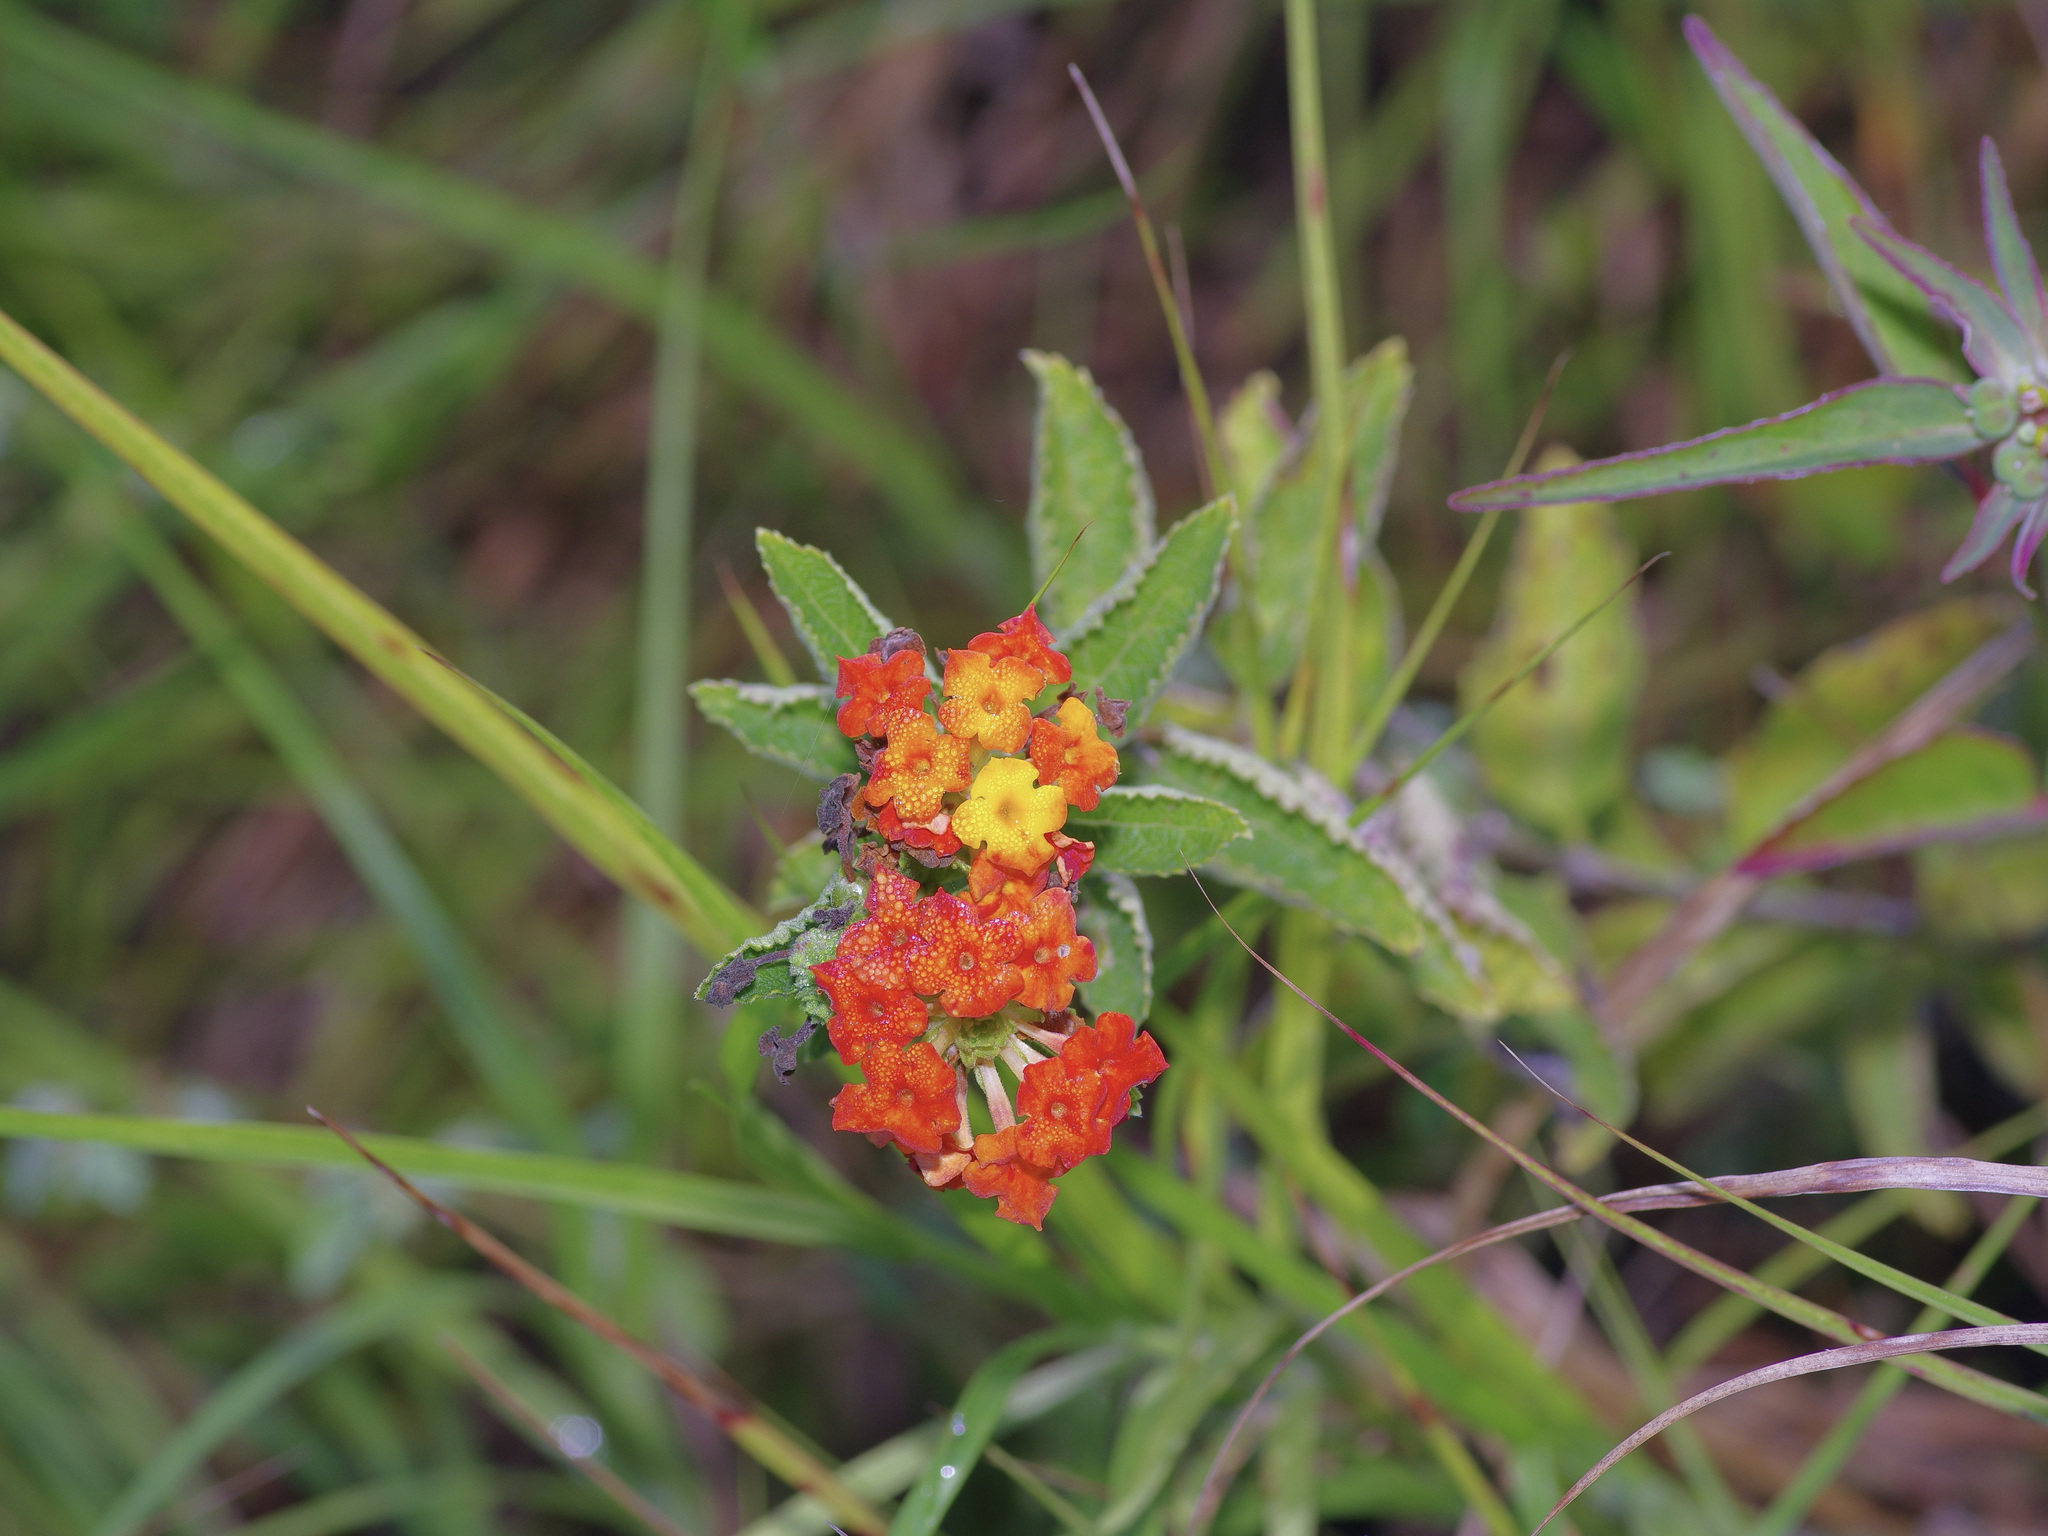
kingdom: Plantae
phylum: Tracheophyta
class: Magnoliopsida
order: Lamiales
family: Verbenaceae
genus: Lantana
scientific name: Lantana urticoides
